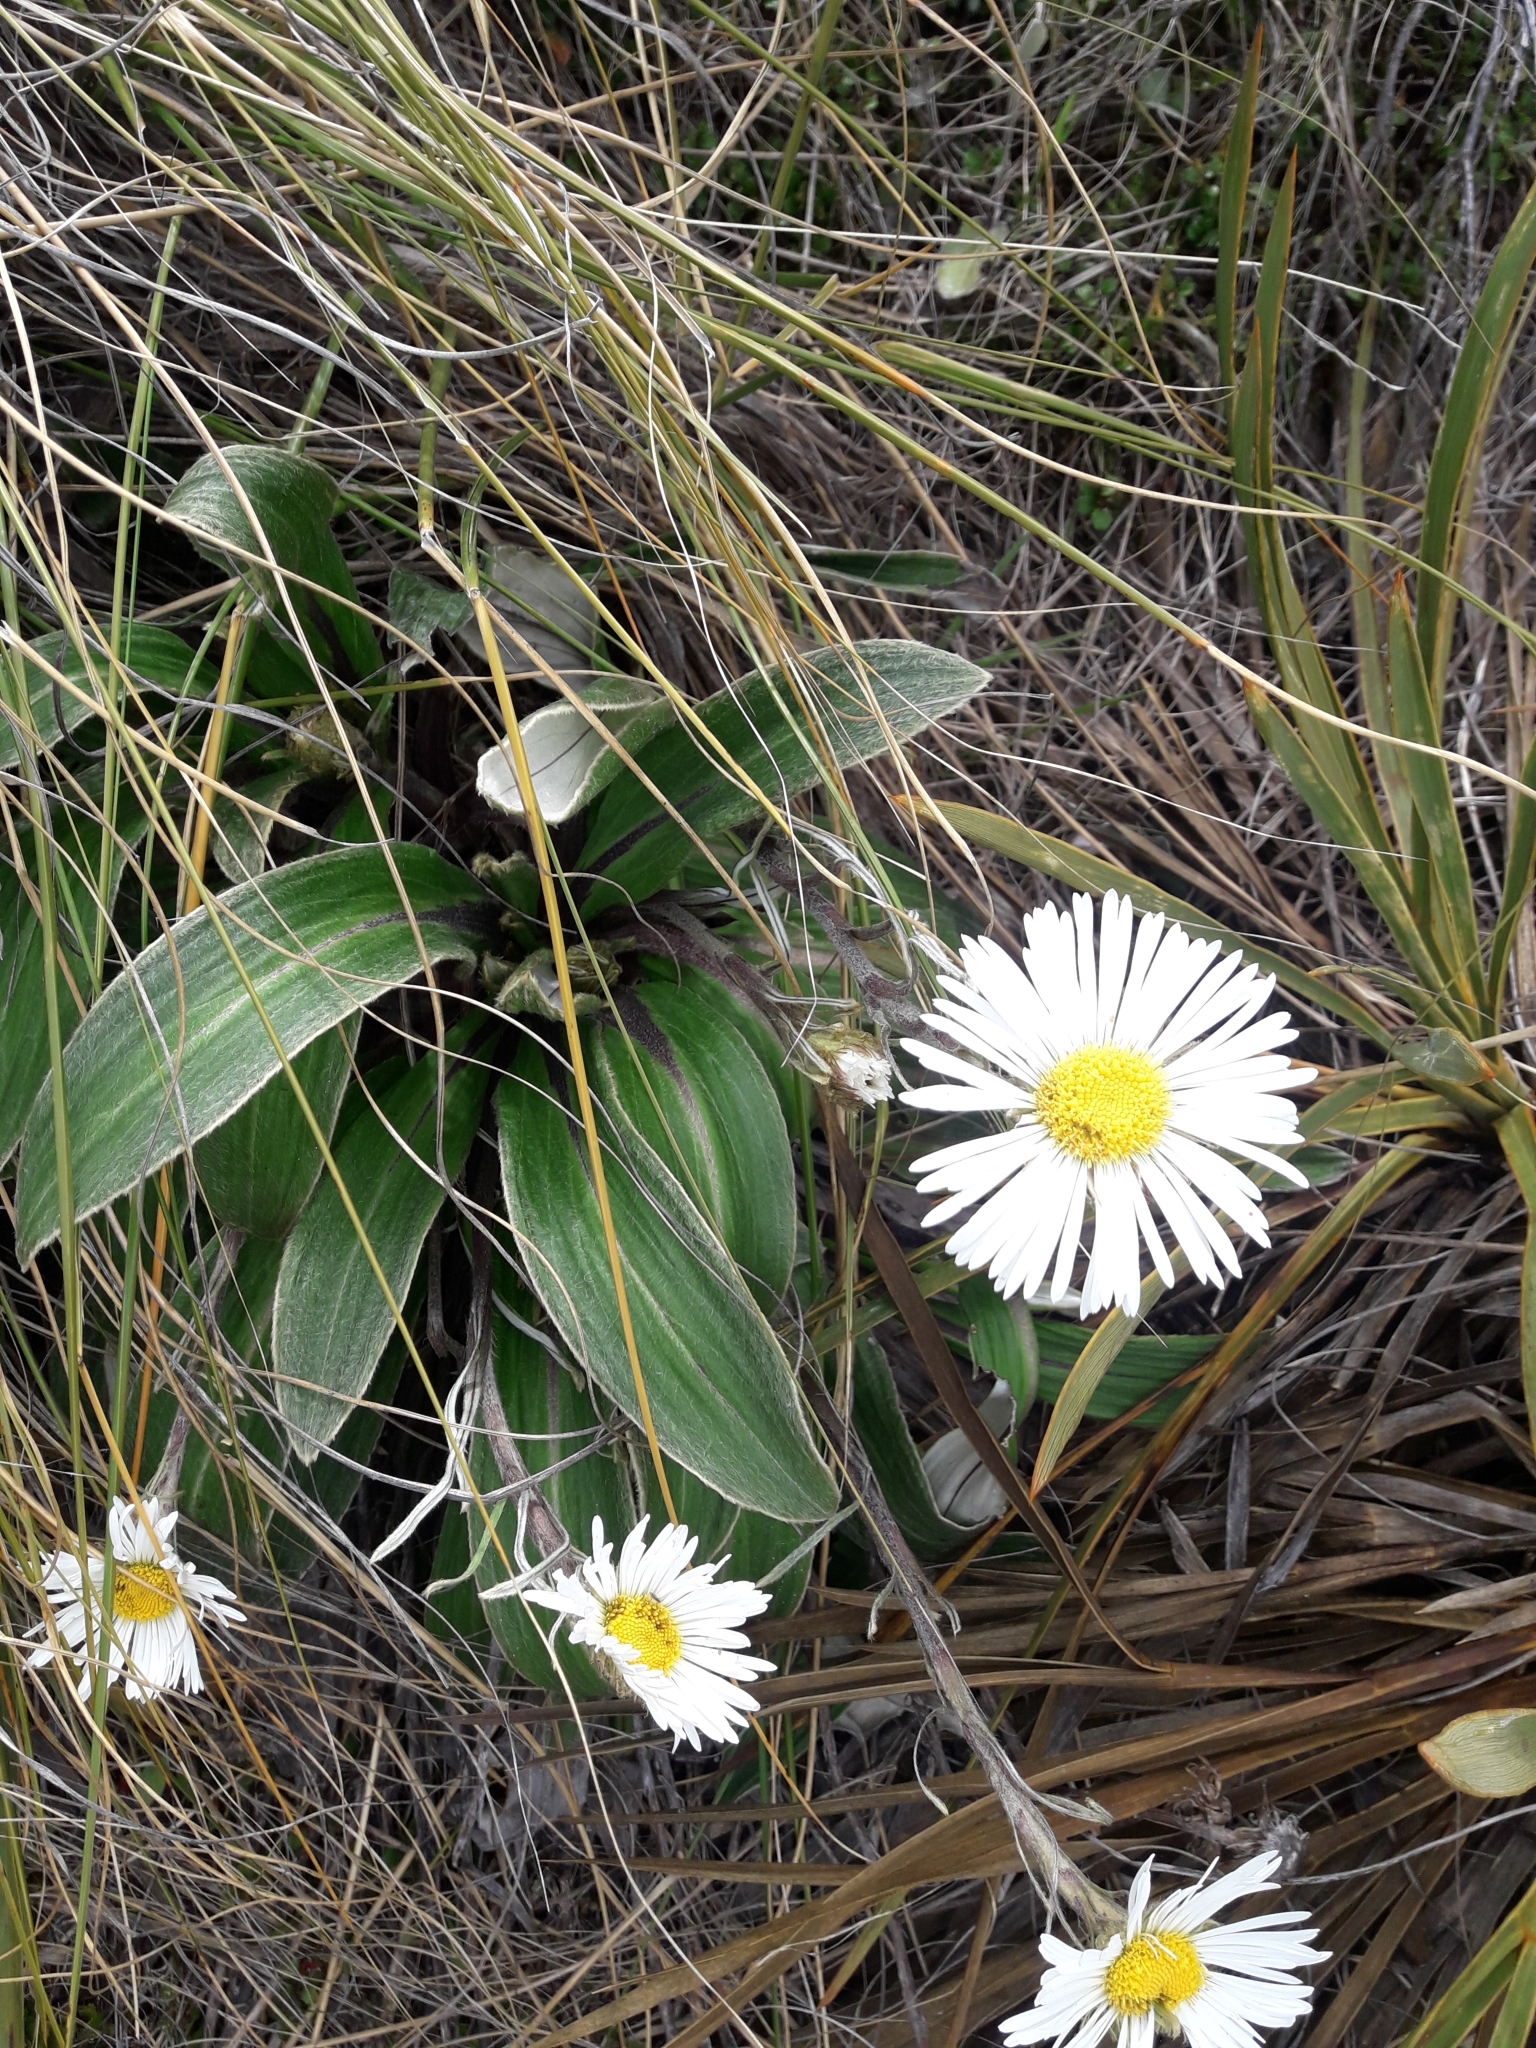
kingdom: Plantae
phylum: Tracheophyta
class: Magnoliopsida
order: Asterales
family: Asteraceae
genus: Celmisia
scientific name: Celmisia verbascifolia
